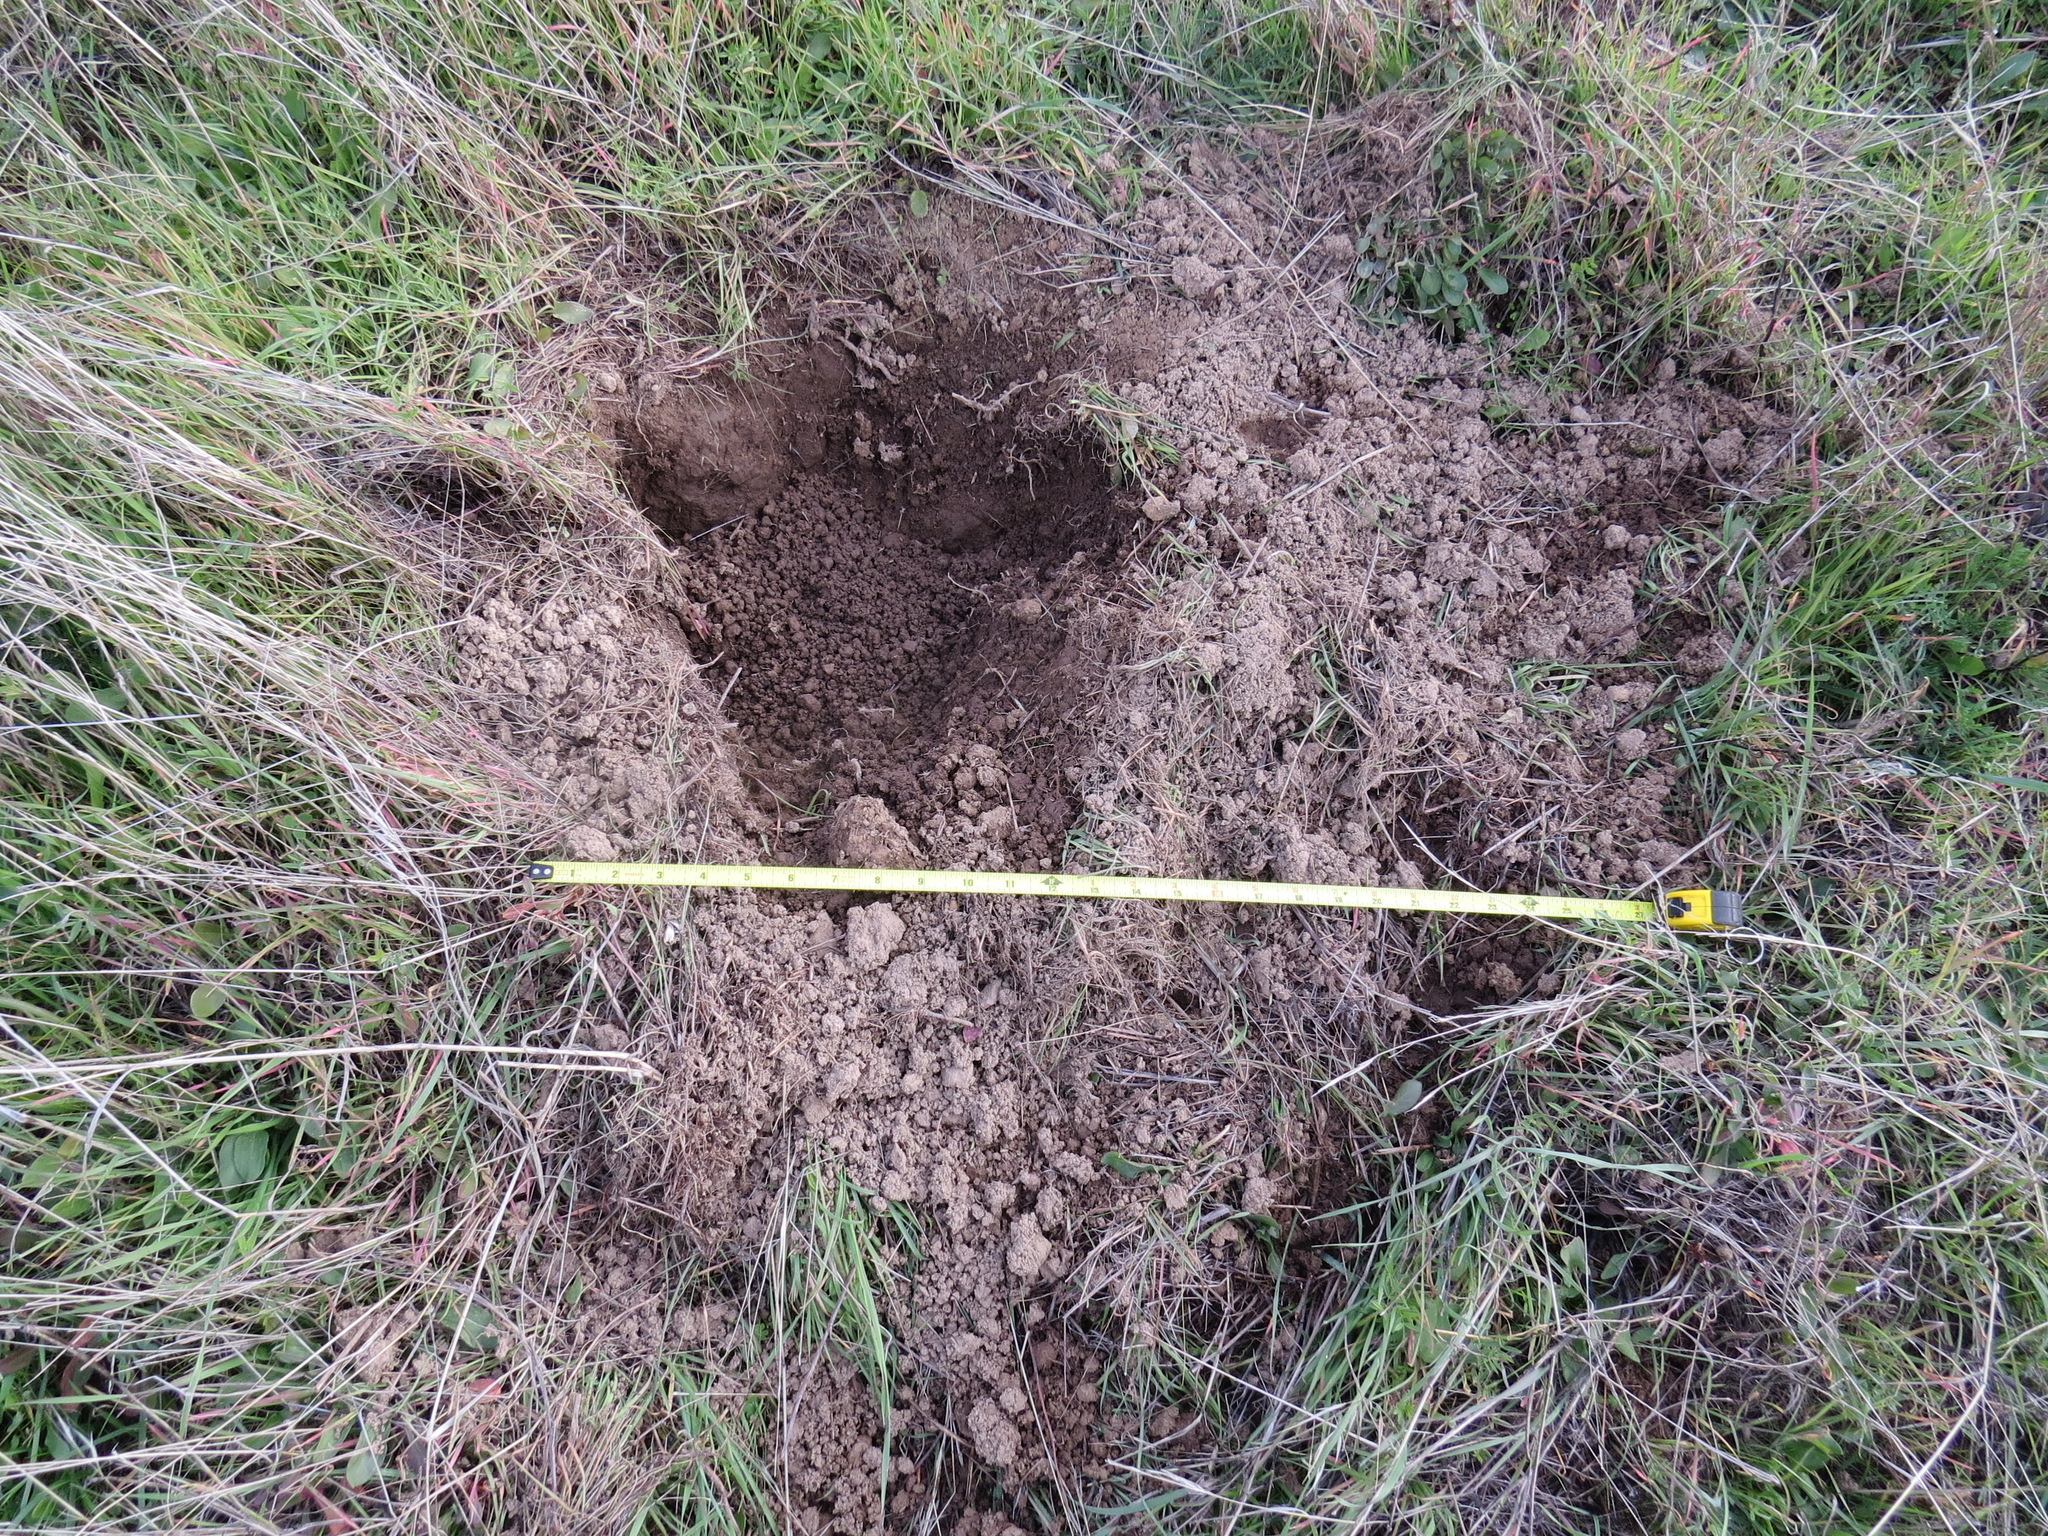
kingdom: Animalia
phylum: Chordata
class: Mammalia
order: Carnivora
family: Canidae
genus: Canis
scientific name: Canis latrans
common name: Coyote
